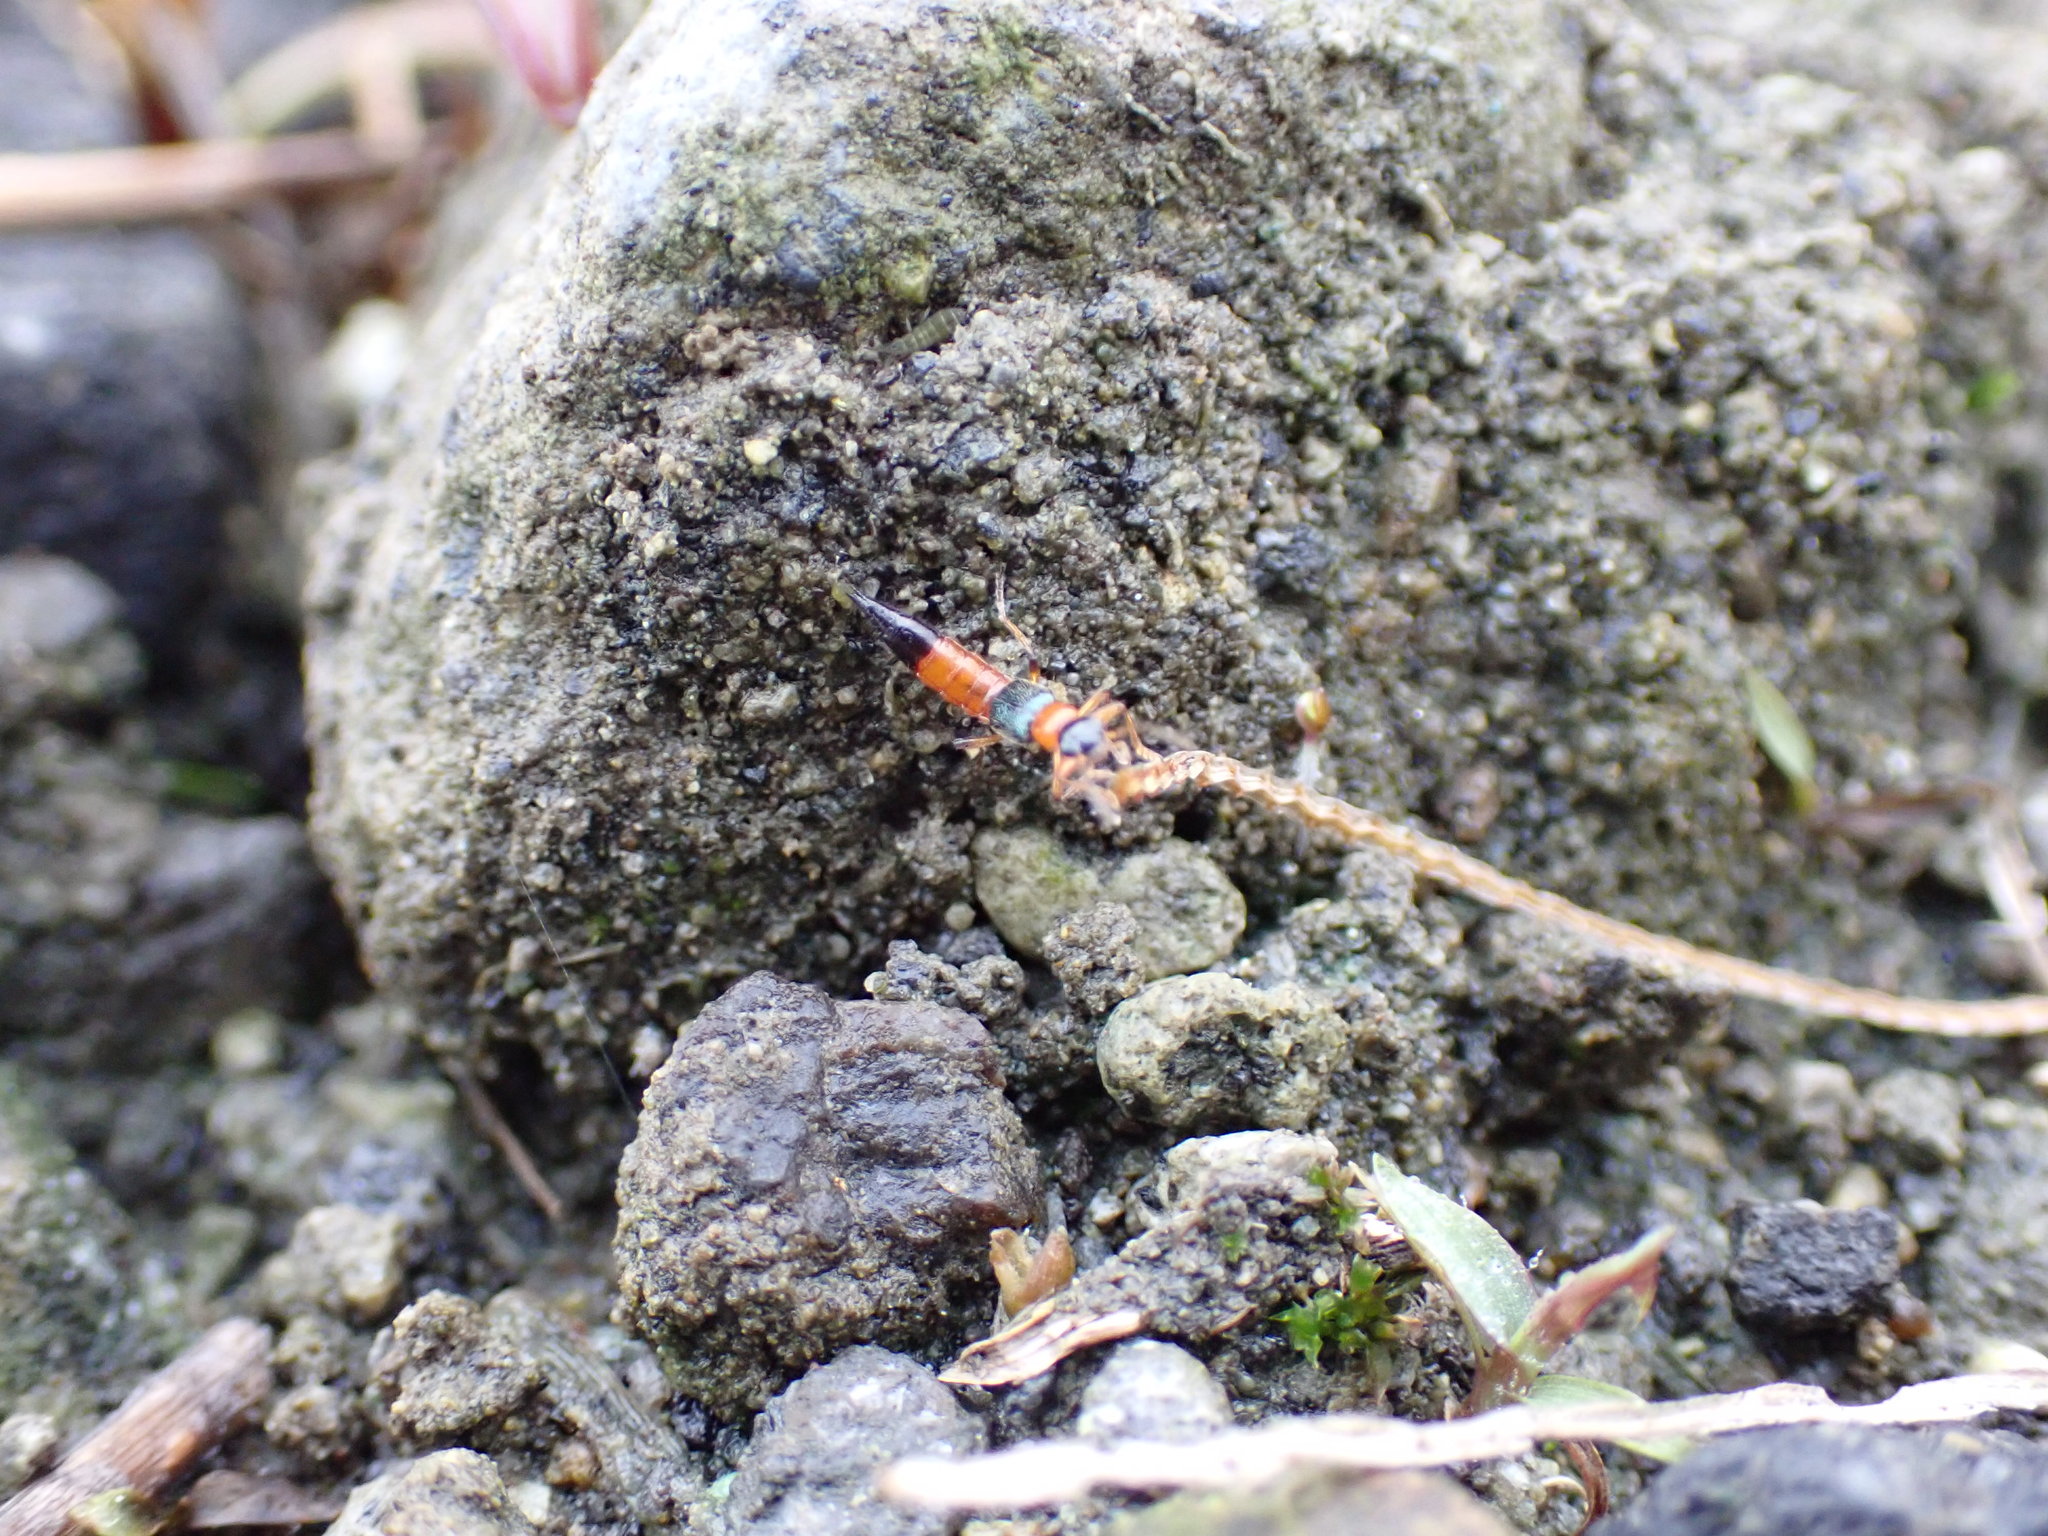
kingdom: Animalia
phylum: Arthropoda
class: Insecta
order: Coleoptera
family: Staphylinidae
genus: Paederus
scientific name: Paederus fuscipes
